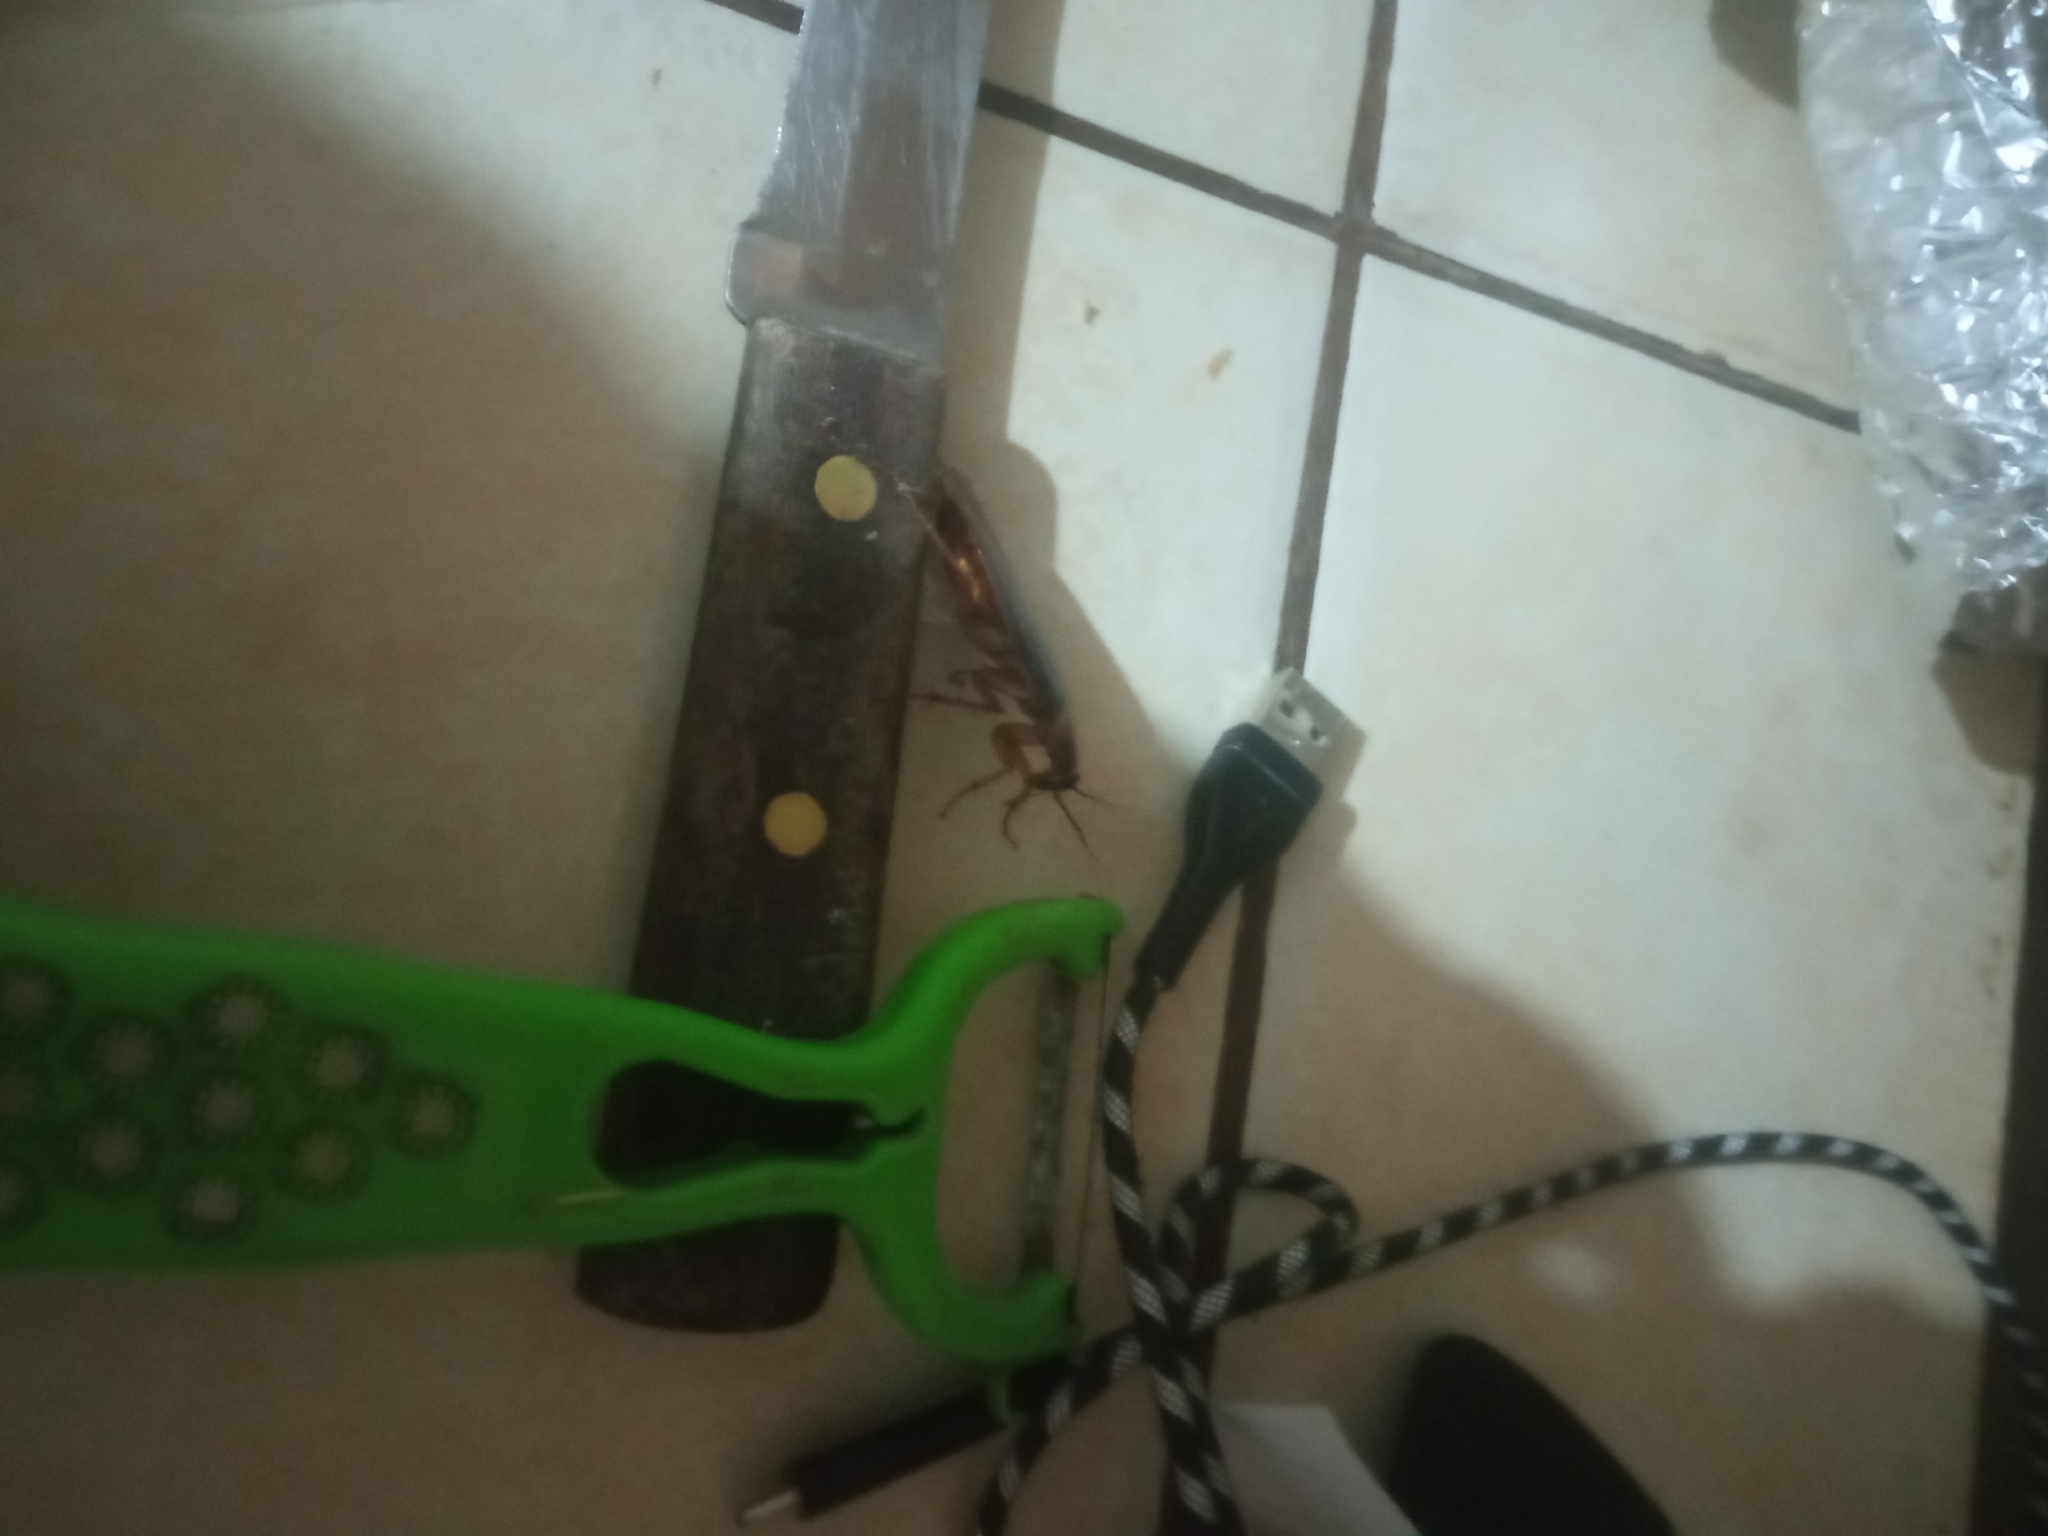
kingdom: Animalia
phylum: Arthropoda
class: Insecta
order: Blattodea
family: Blattidae
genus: Periplaneta
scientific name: Periplaneta americana
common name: American cockroach
